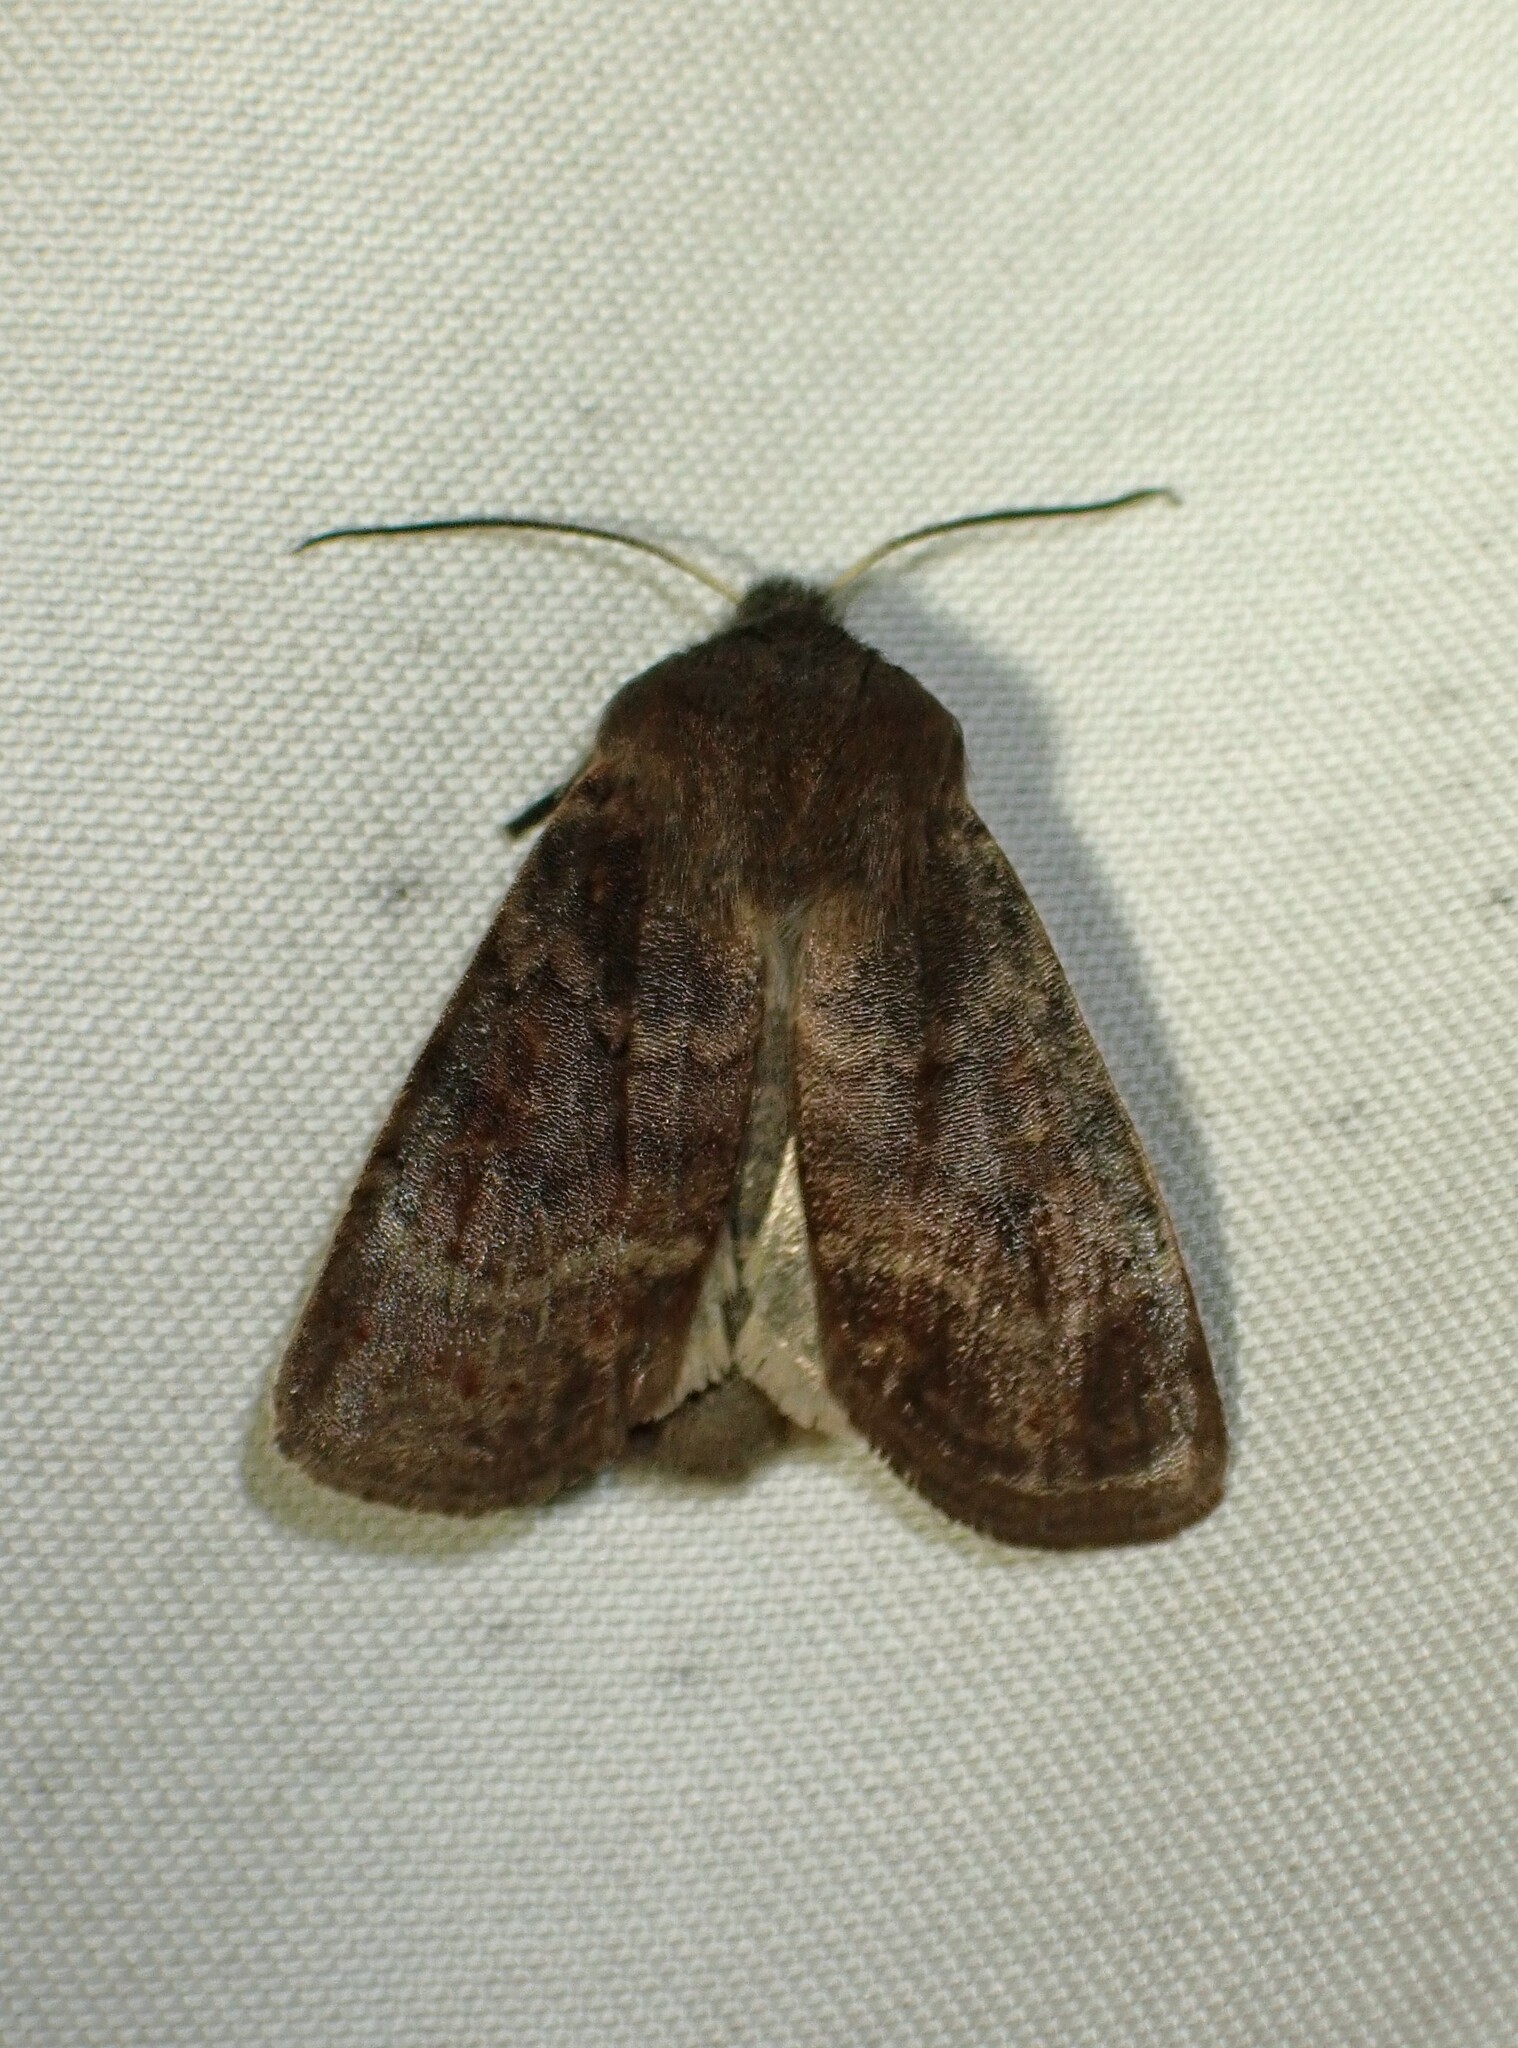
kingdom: Animalia
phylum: Arthropoda
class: Insecta
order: Lepidoptera
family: Noctuidae
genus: Homoglaea
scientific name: Homoglaea hircina
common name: Goat sallow
